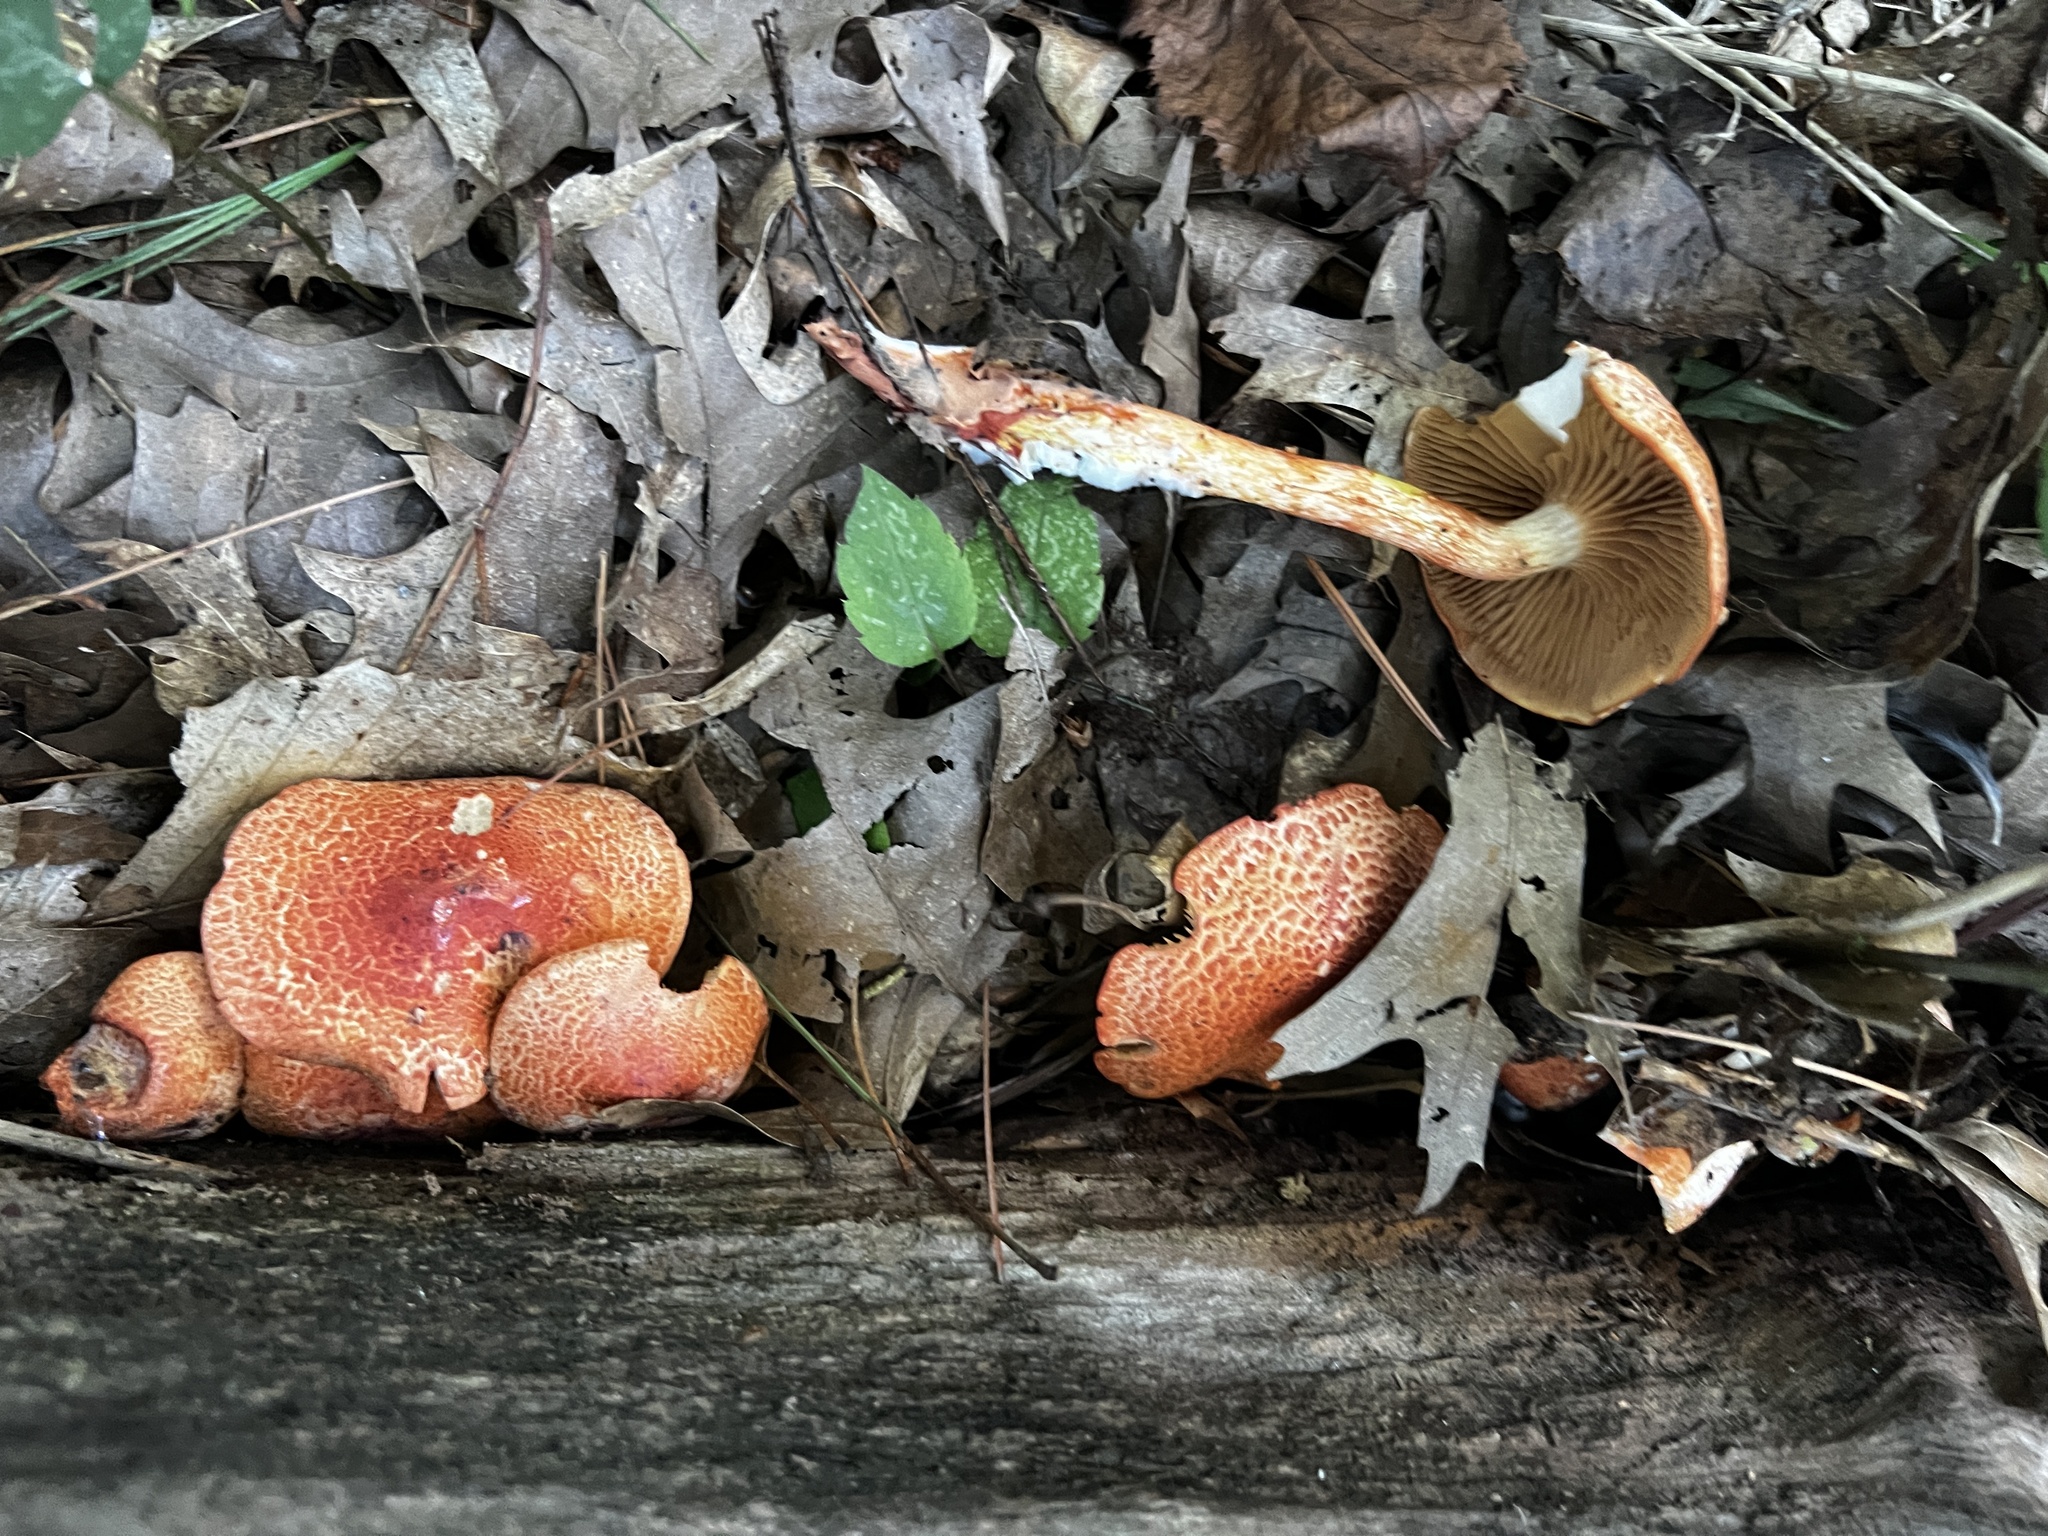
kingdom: Fungi
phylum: Basidiomycota
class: Agaricomycetes
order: Agaricales
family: Cortinariaceae
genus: Cortinarius
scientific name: Cortinarius bolaris
